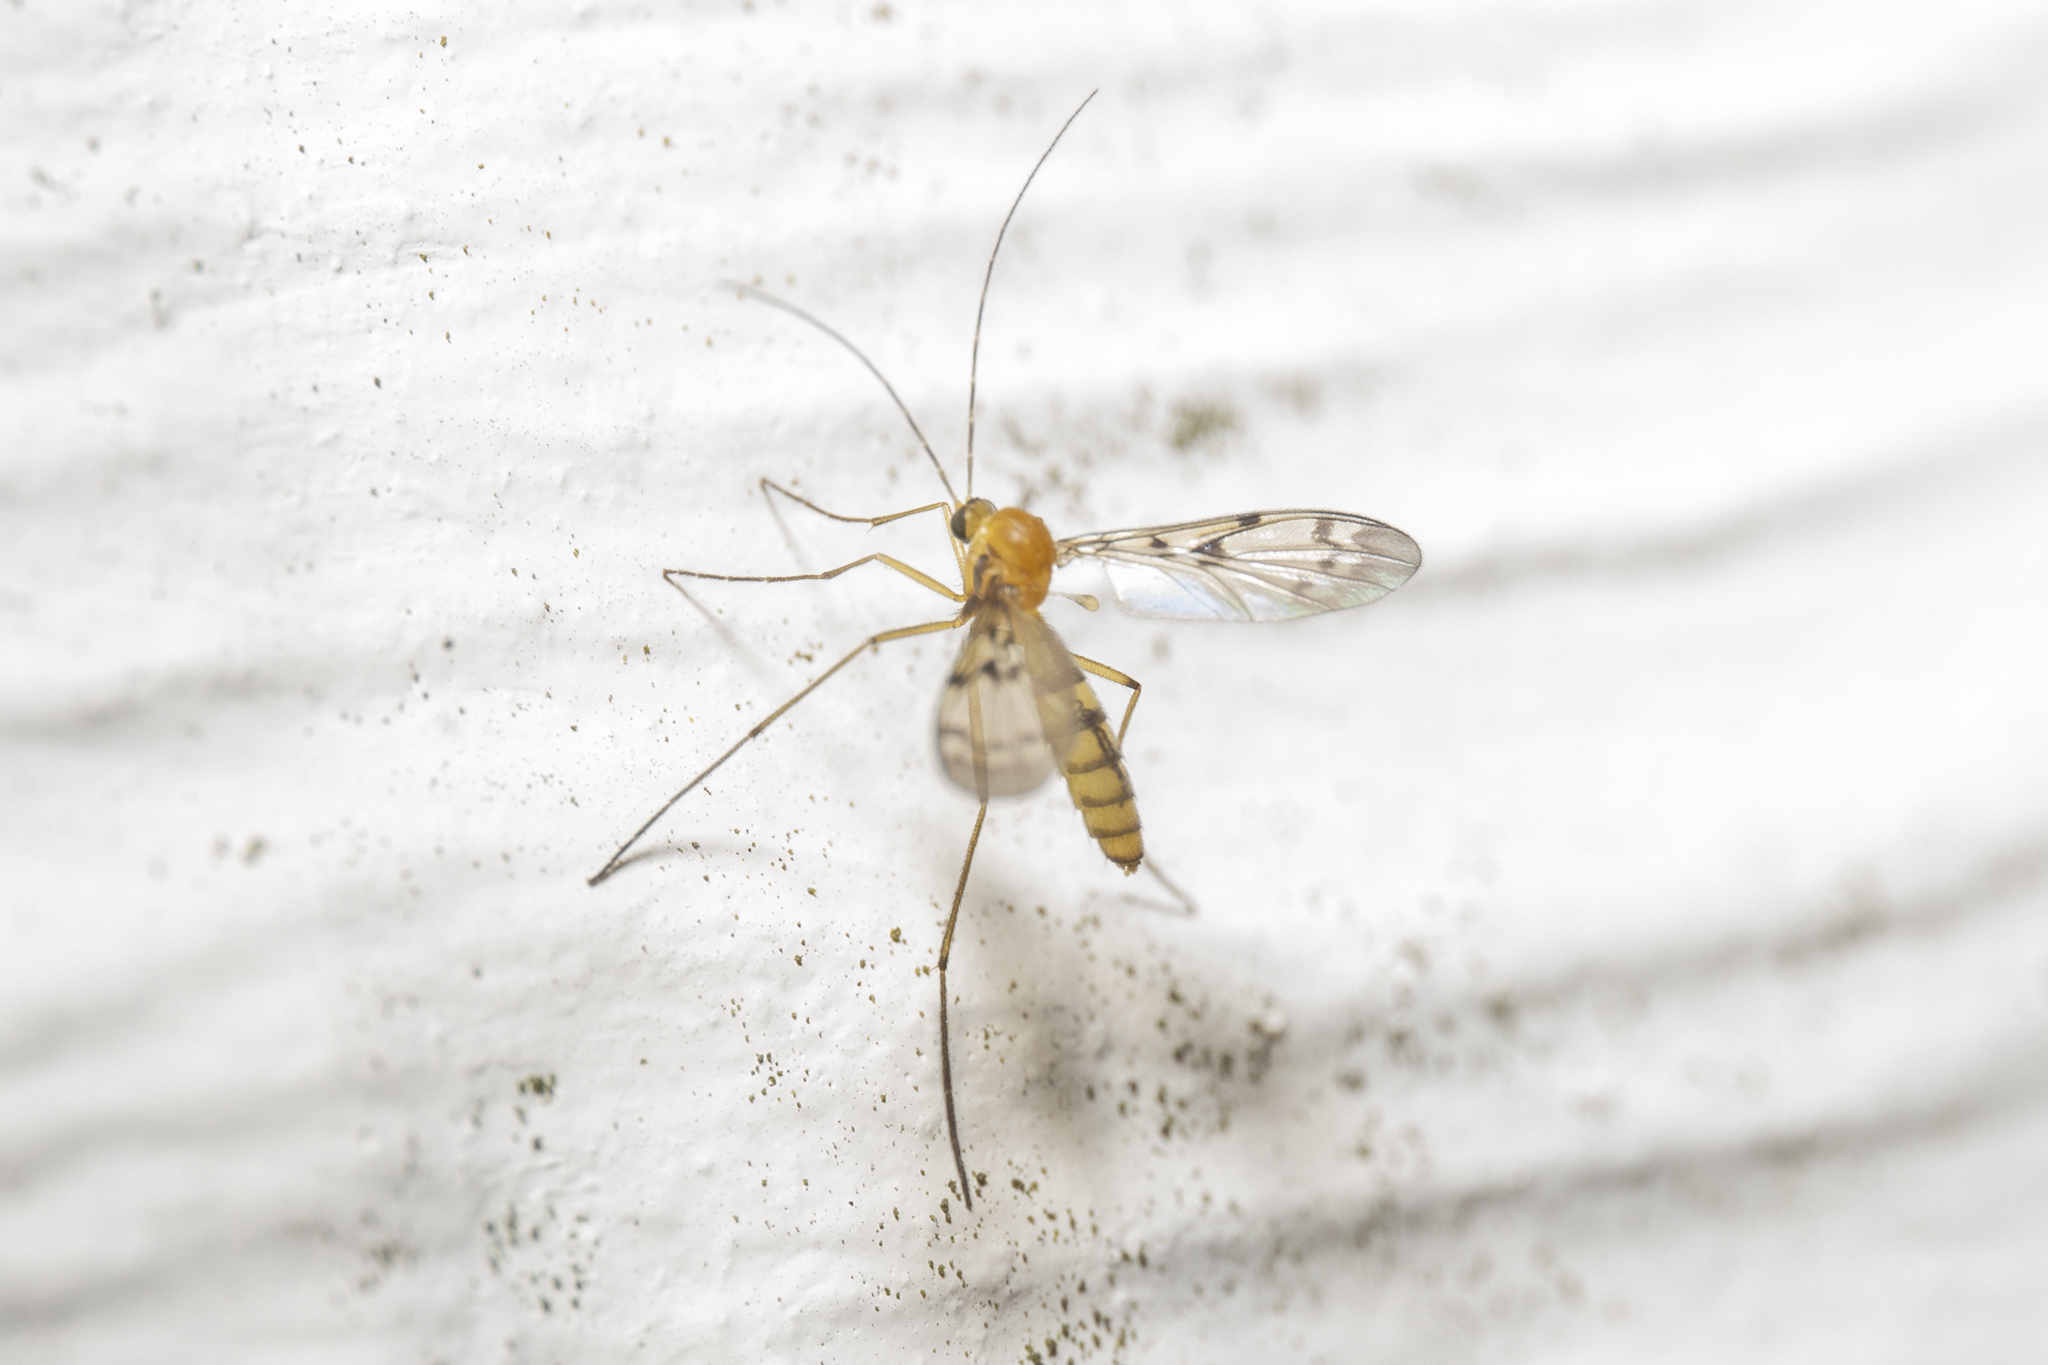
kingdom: Animalia
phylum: Arthropoda
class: Insecta
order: Diptera
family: Keroplatidae
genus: Chiasmoneura
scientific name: Chiasmoneura milligani
